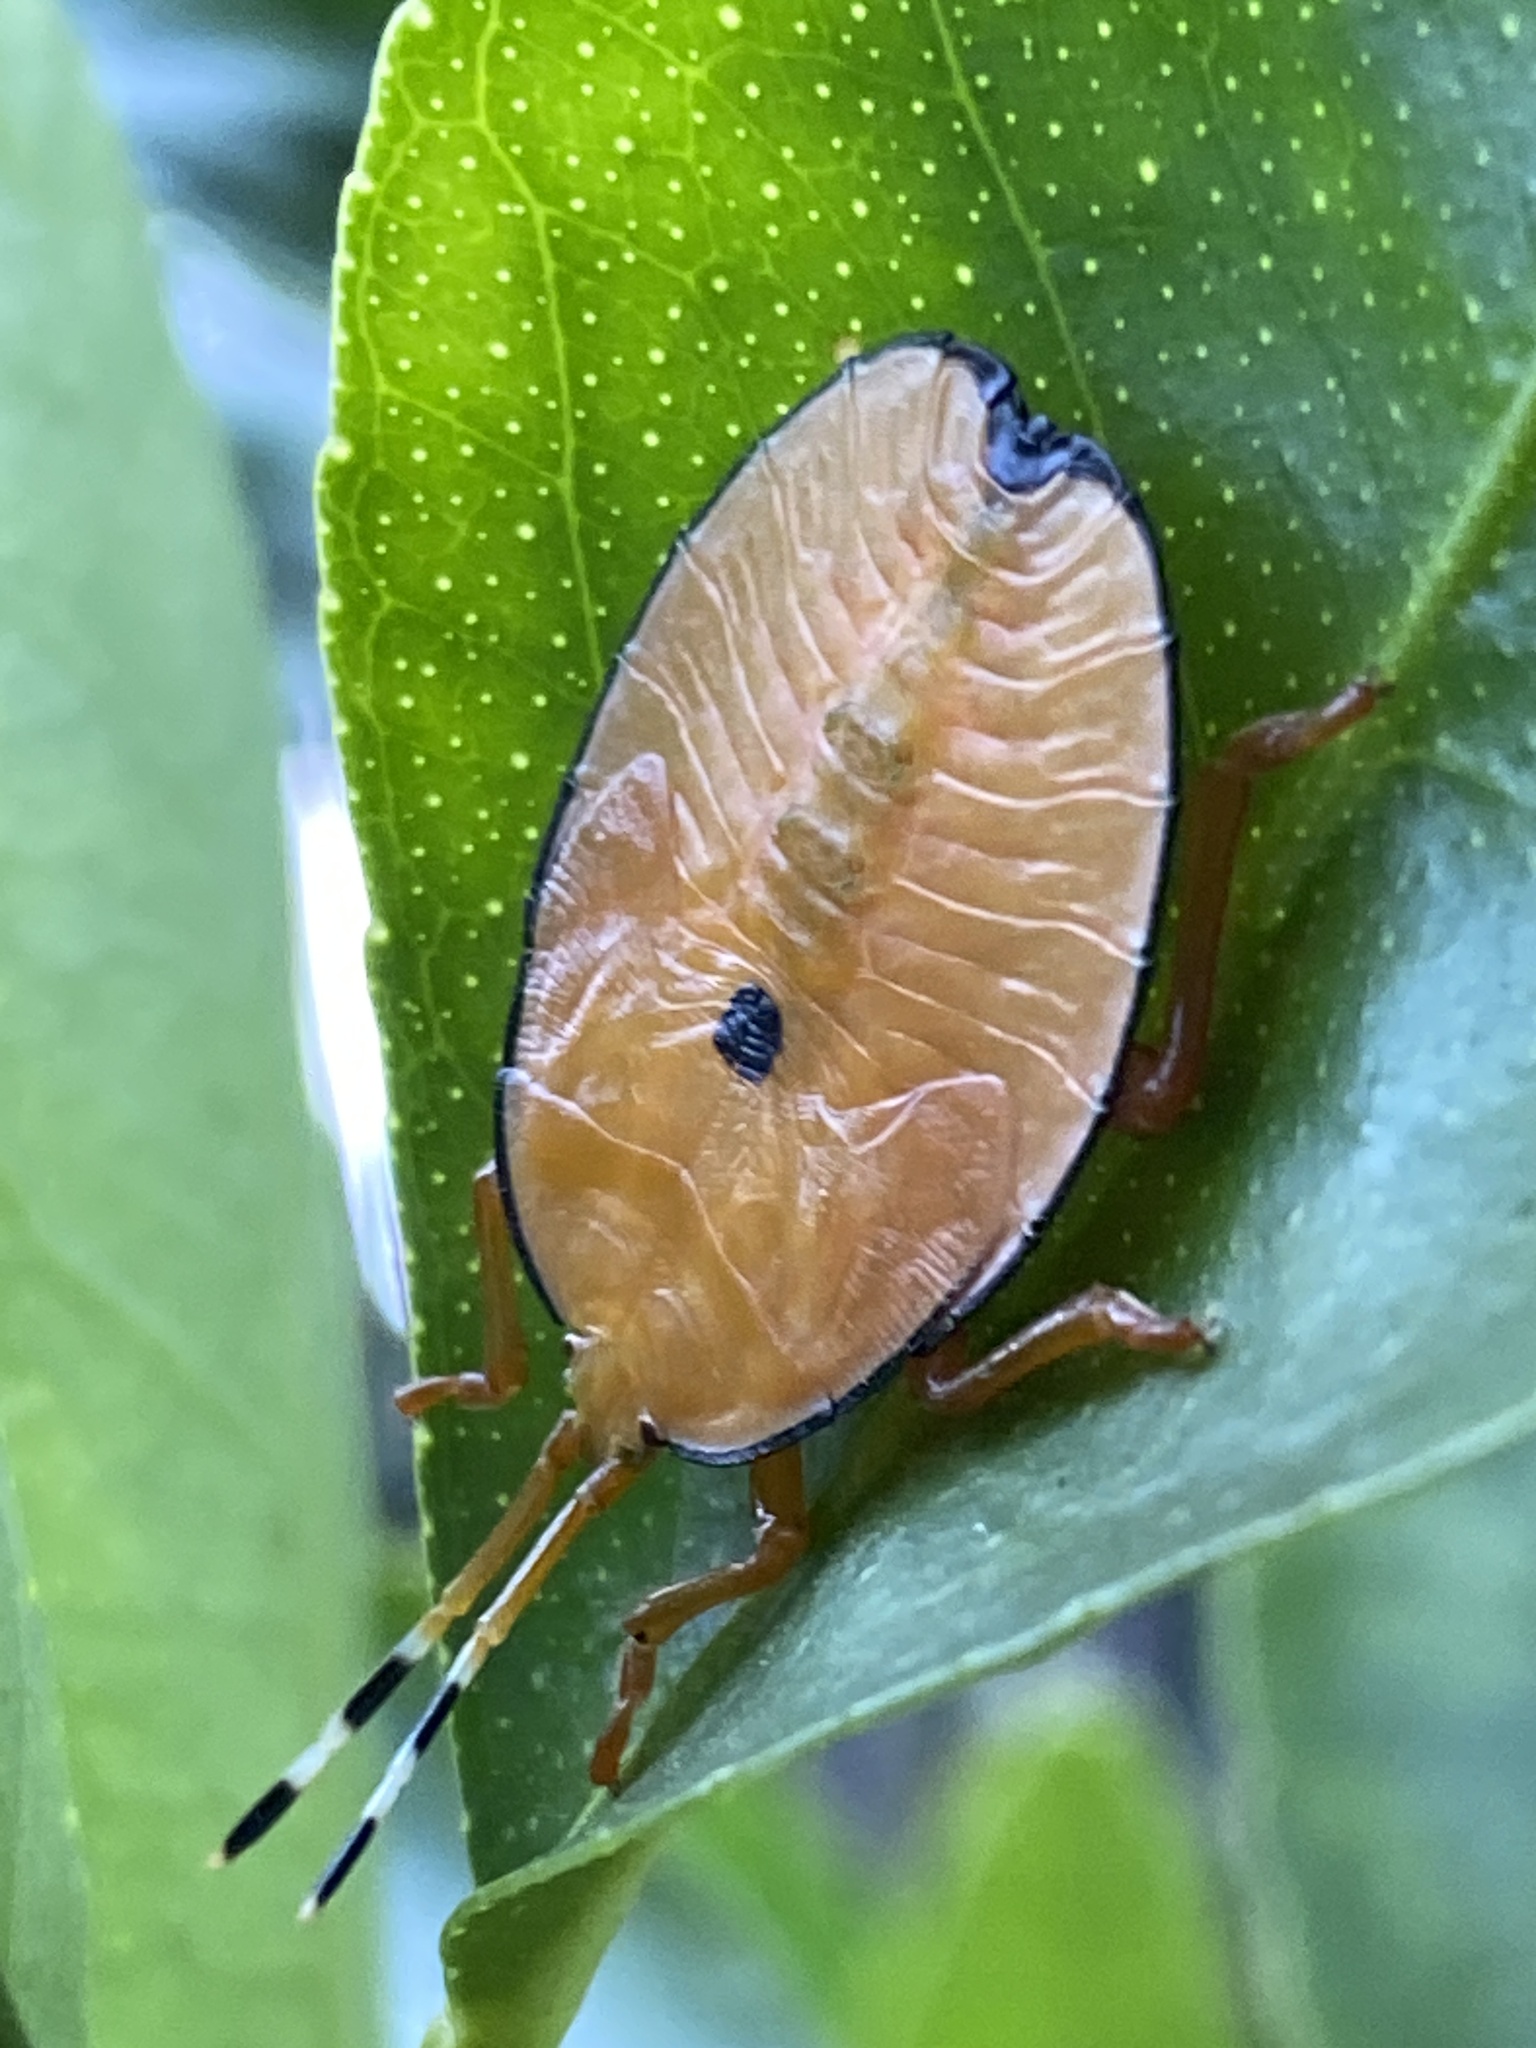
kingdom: Animalia
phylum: Arthropoda
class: Insecta
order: Hemiptera
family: Tessaratomidae
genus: Musgraveia
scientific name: Musgraveia sulciventris
